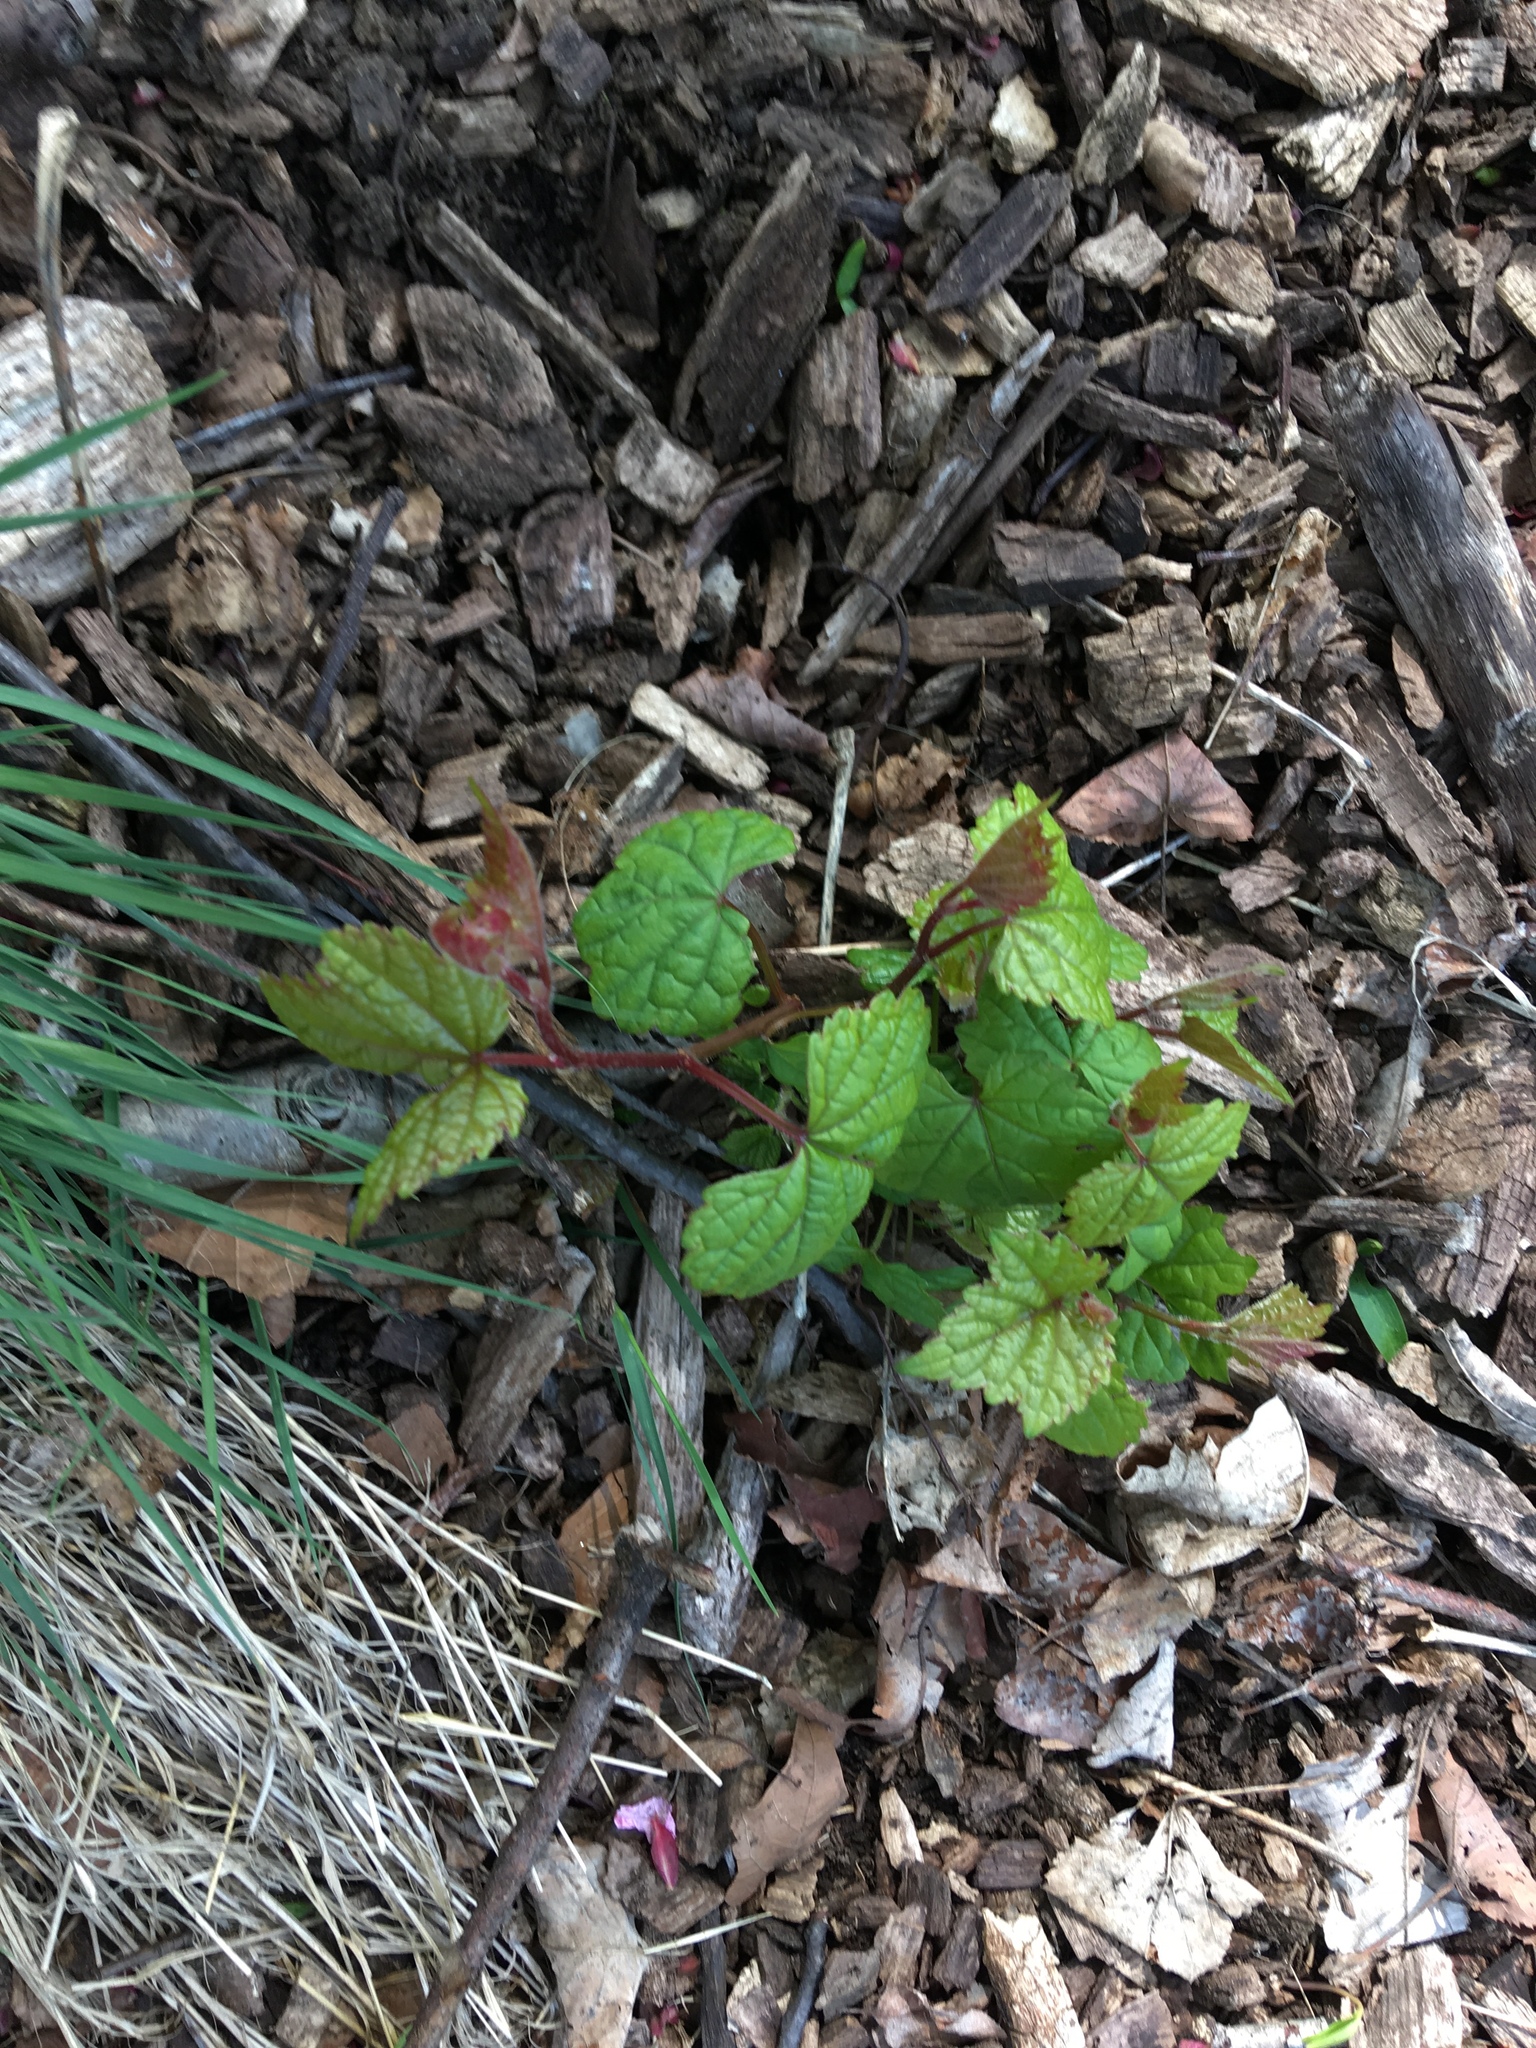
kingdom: Plantae
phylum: Tracheophyta
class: Magnoliopsida
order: Vitales
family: Vitaceae
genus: Ampelopsis
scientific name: Ampelopsis glandulosa
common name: Amur peppervine
